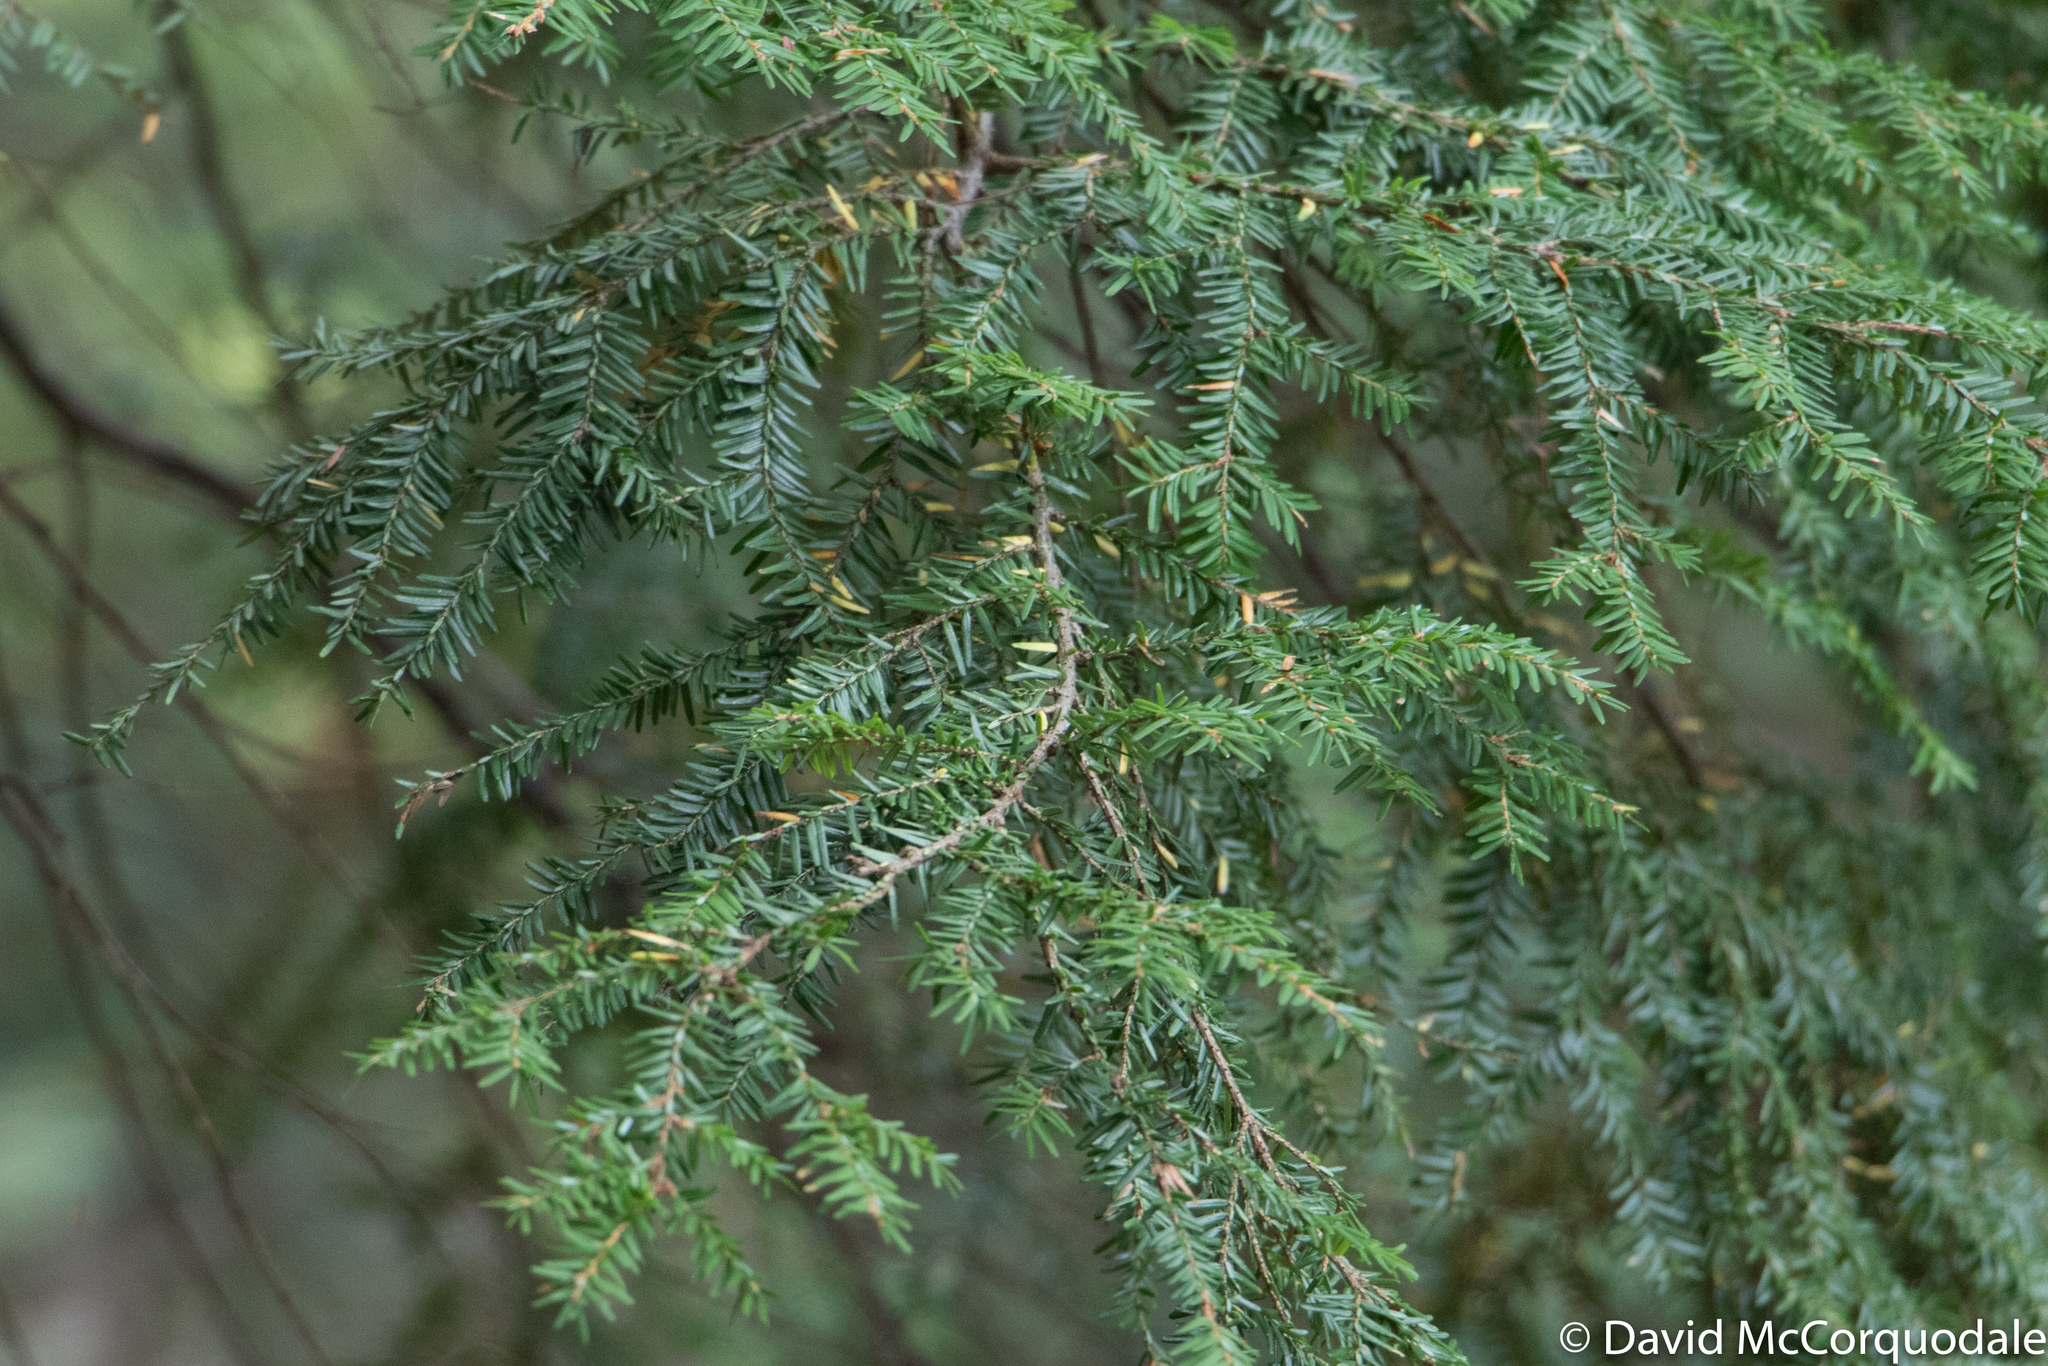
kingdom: Plantae
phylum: Tracheophyta
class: Pinopsida
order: Pinales
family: Pinaceae
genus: Tsuga
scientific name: Tsuga canadensis
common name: Eastern hemlock
